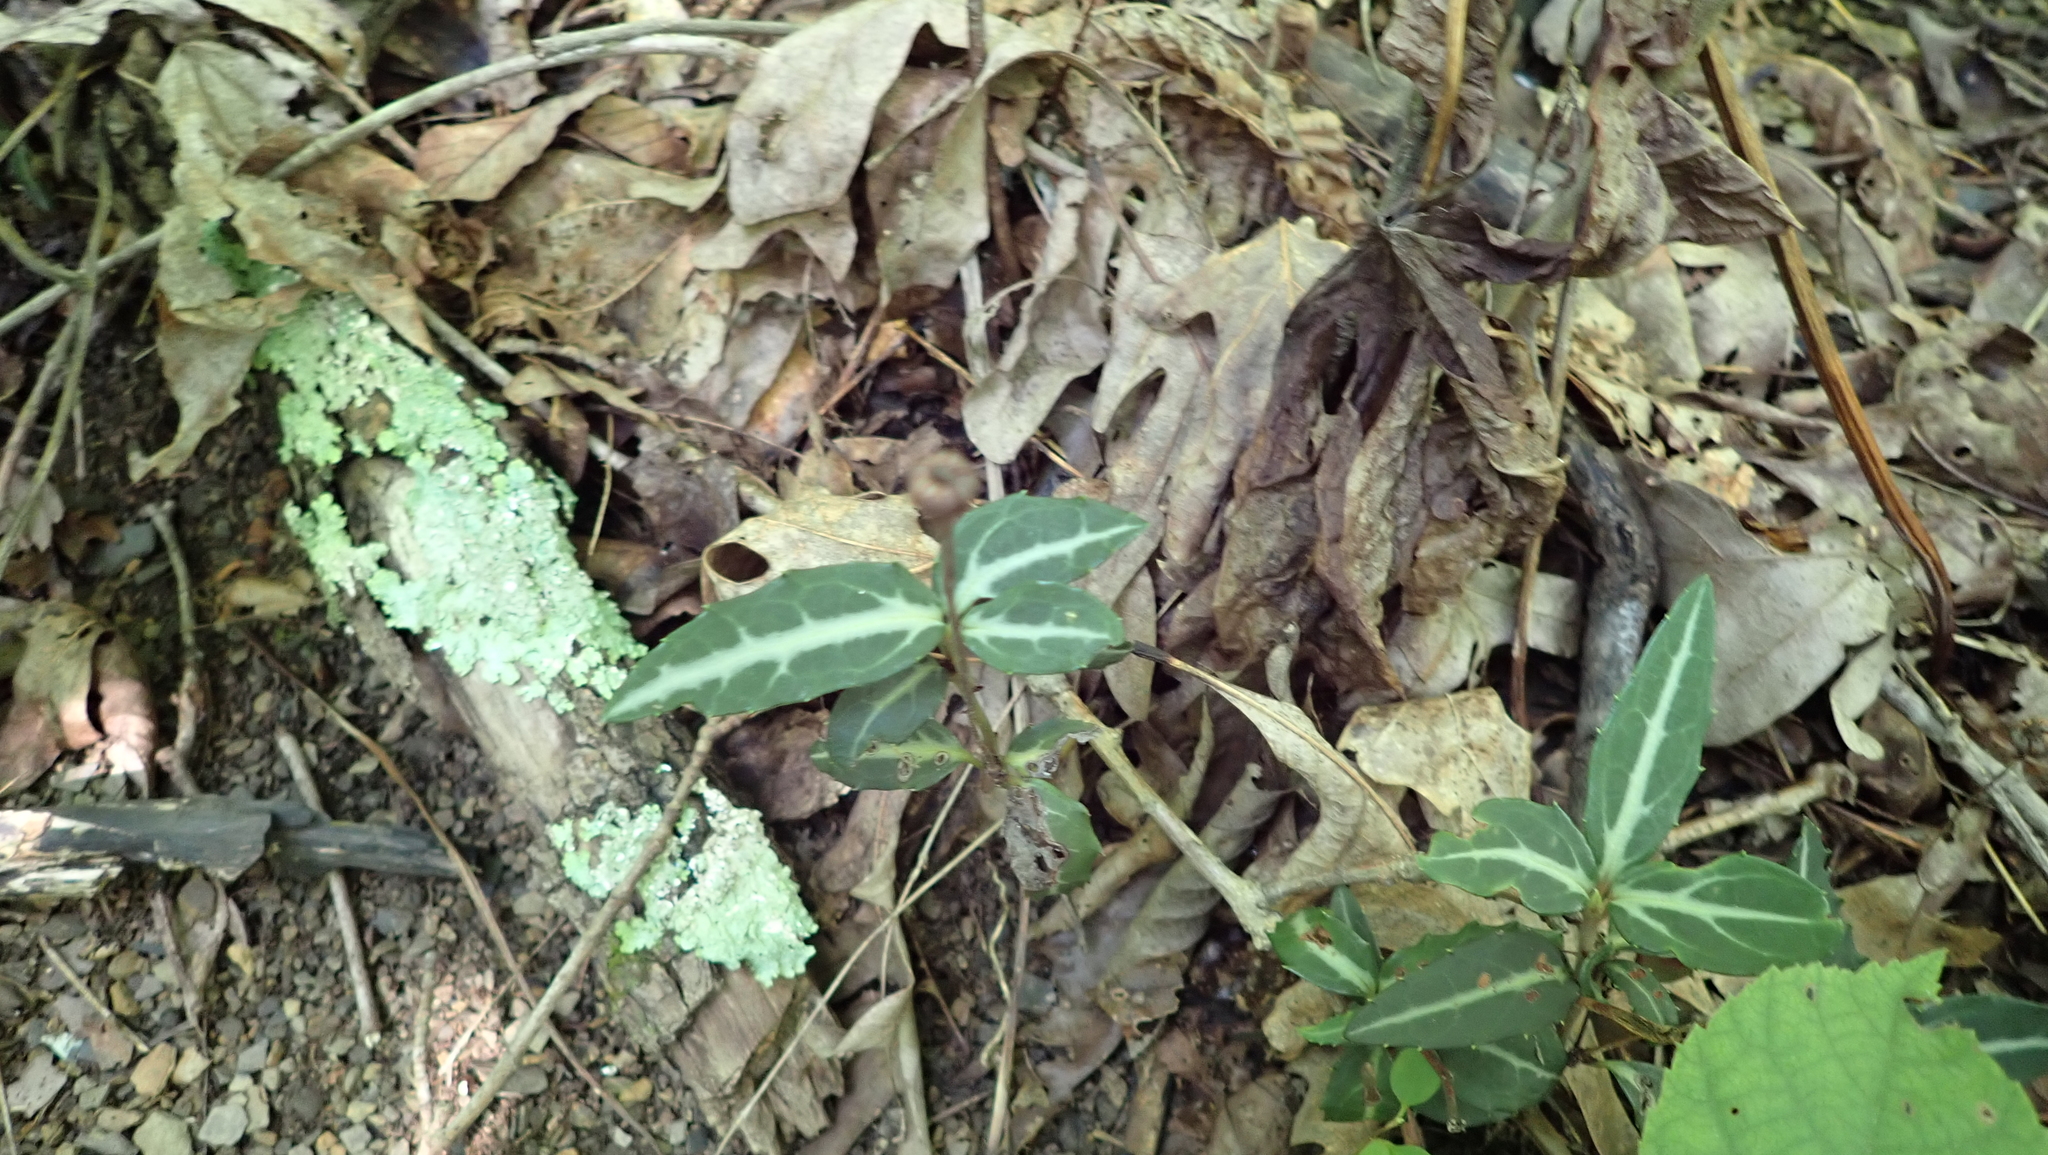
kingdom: Plantae
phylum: Tracheophyta
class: Magnoliopsida
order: Ericales
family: Ericaceae
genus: Chimaphila
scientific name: Chimaphila maculata
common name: Spotted pipsissewa
